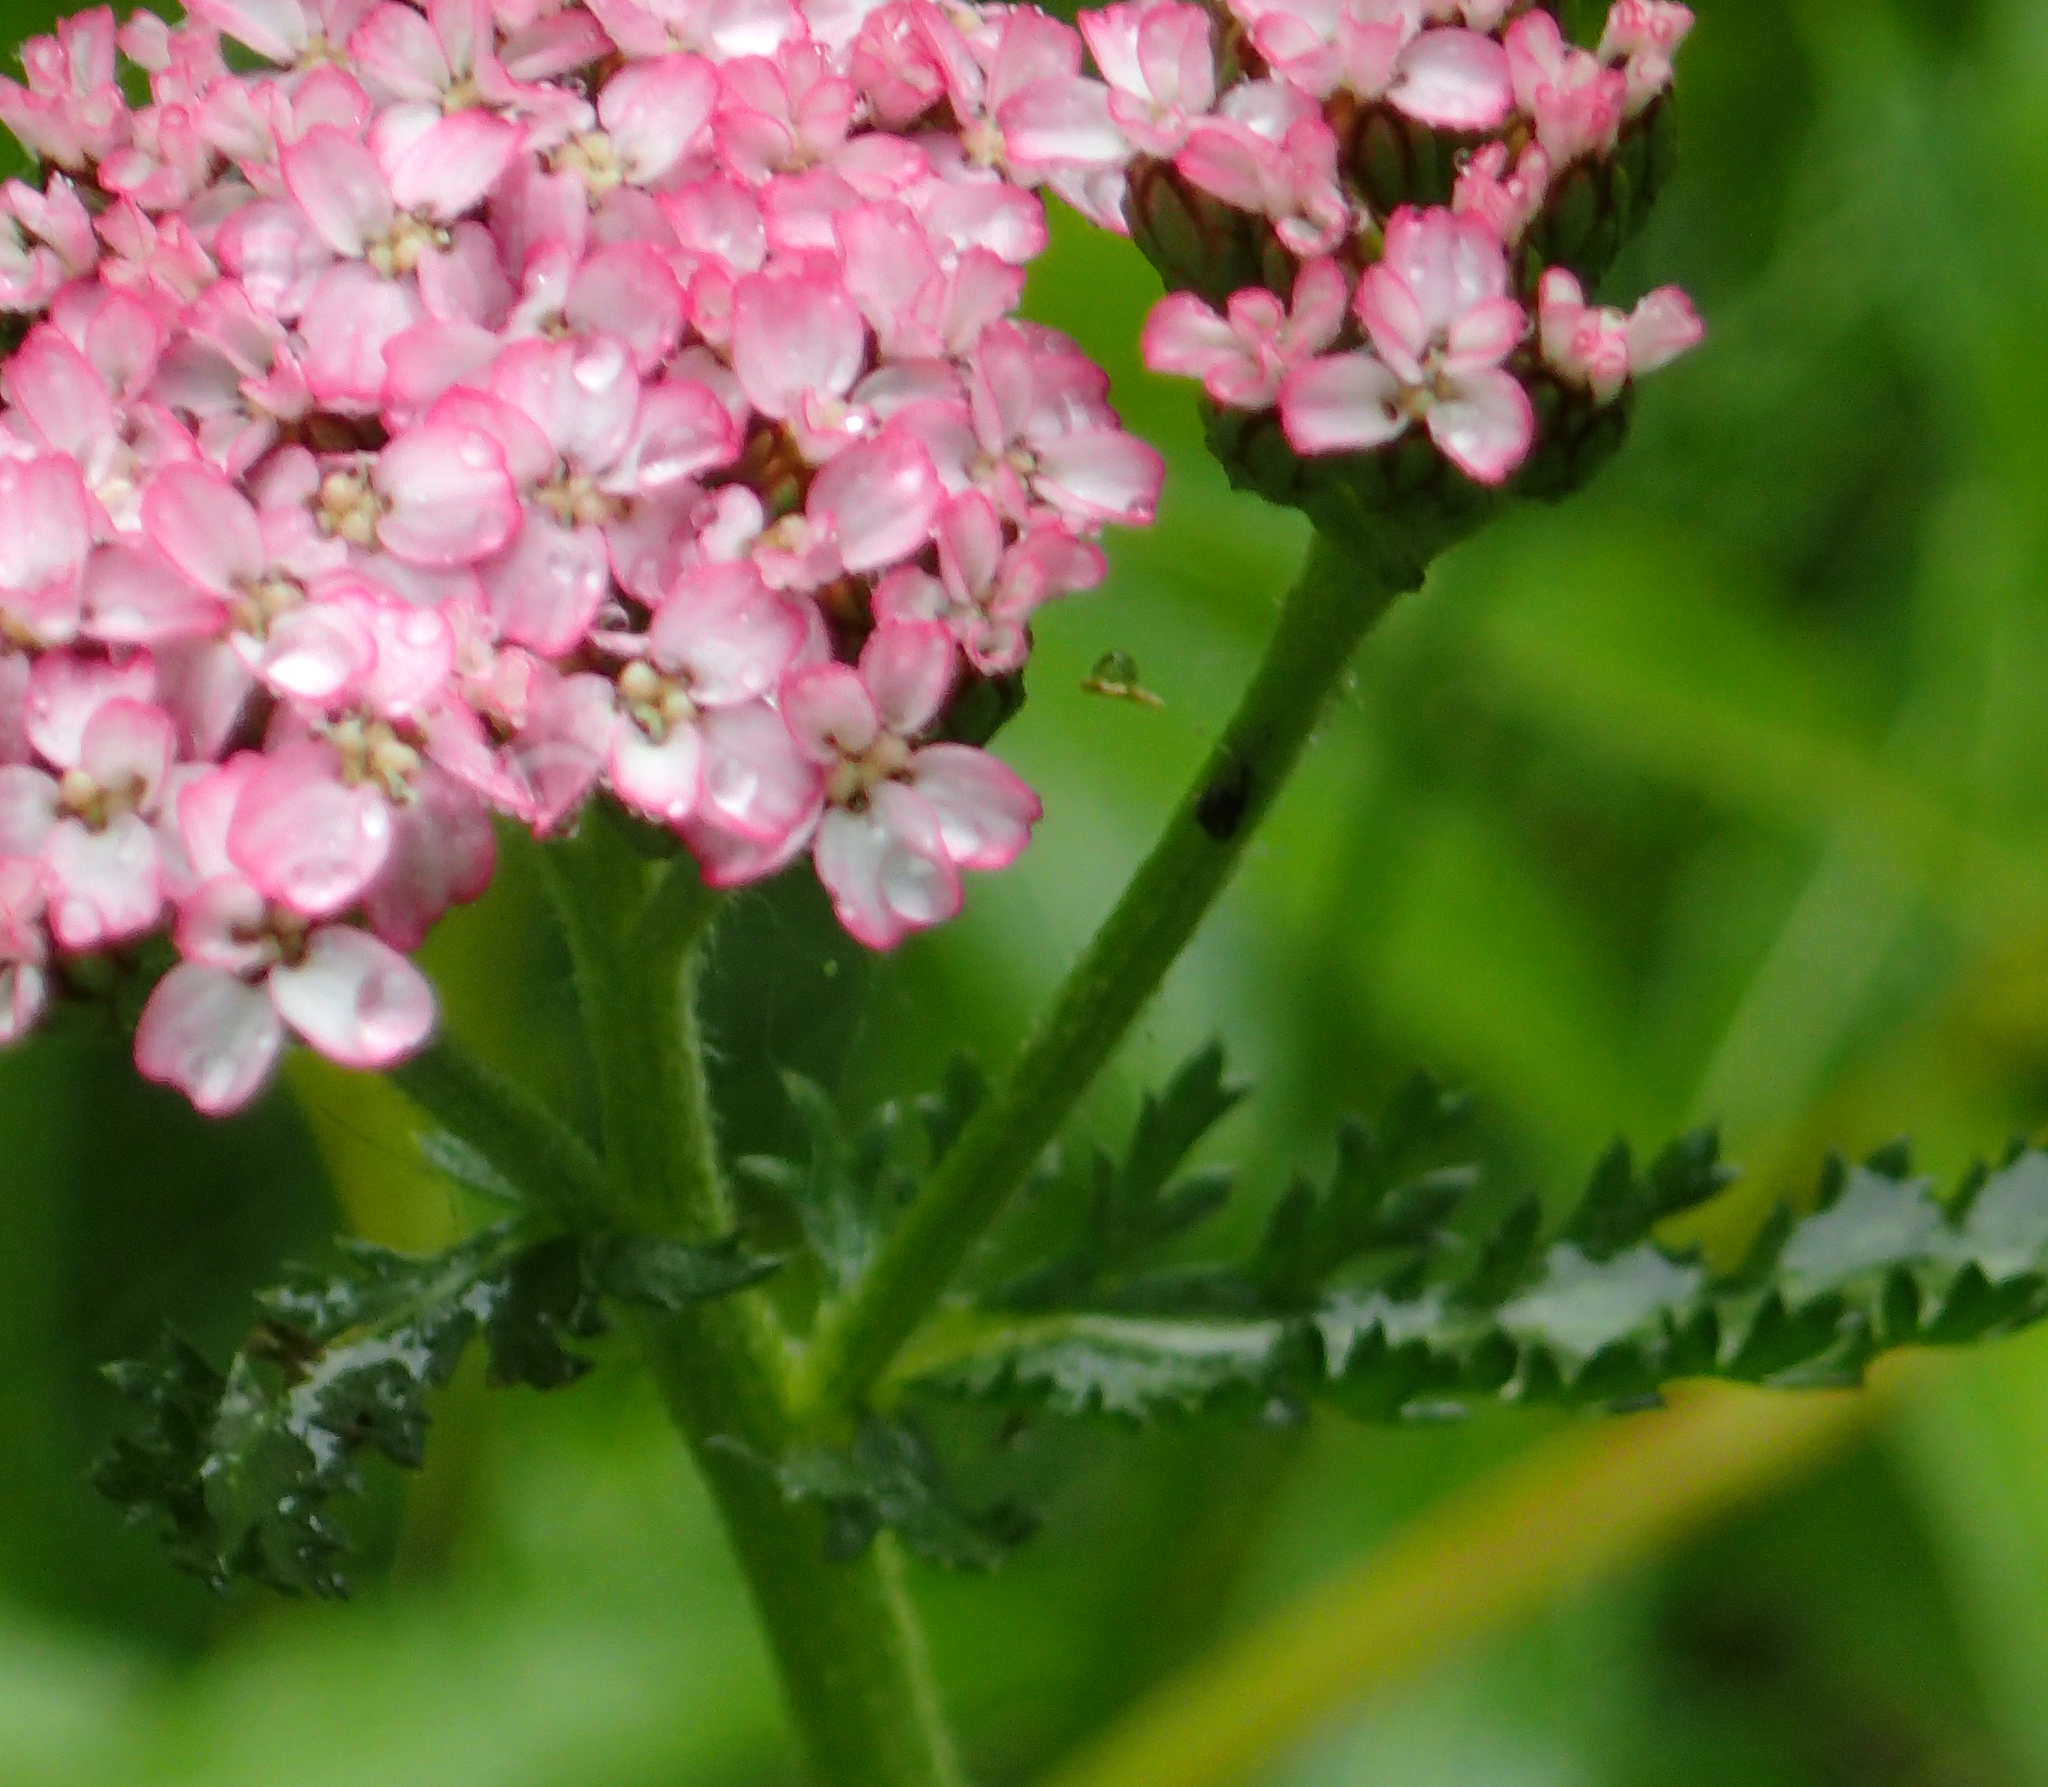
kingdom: Plantae
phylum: Tracheophyta
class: Magnoliopsida
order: Asterales
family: Asteraceae
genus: Achillea
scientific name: Achillea millefolium
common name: Yarrow
